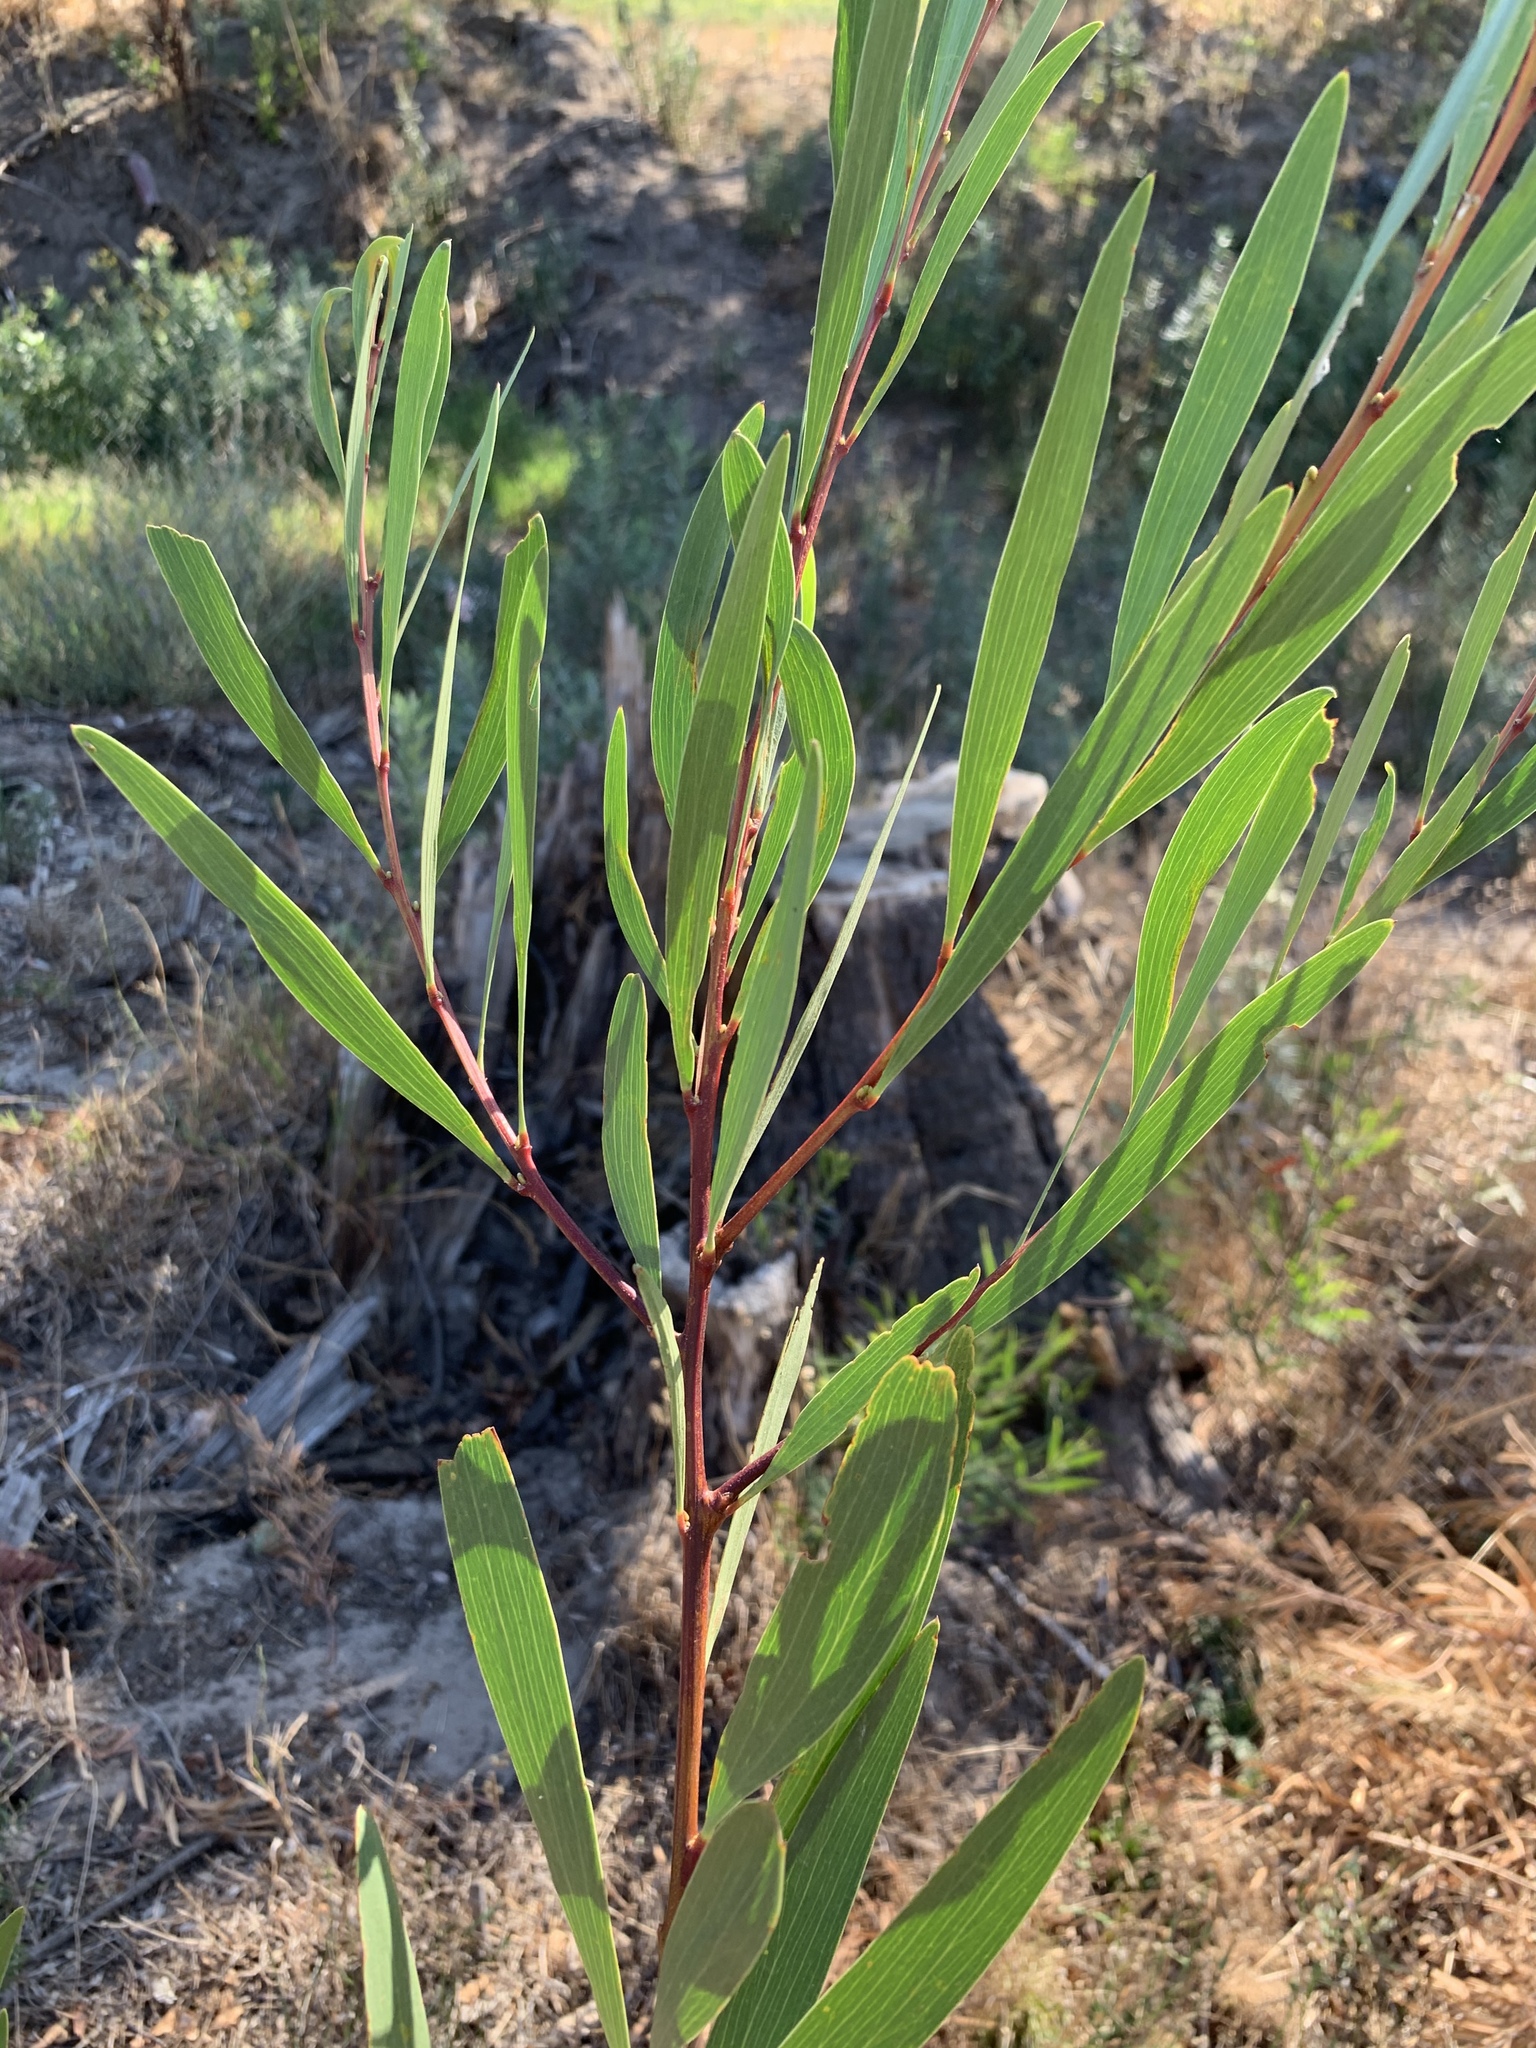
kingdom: Plantae
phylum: Tracheophyta
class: Magnoliopsida
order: Fabales
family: Fabaceae
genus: Acacia
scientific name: Acacia longifolia
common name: Sydney golden wattle
